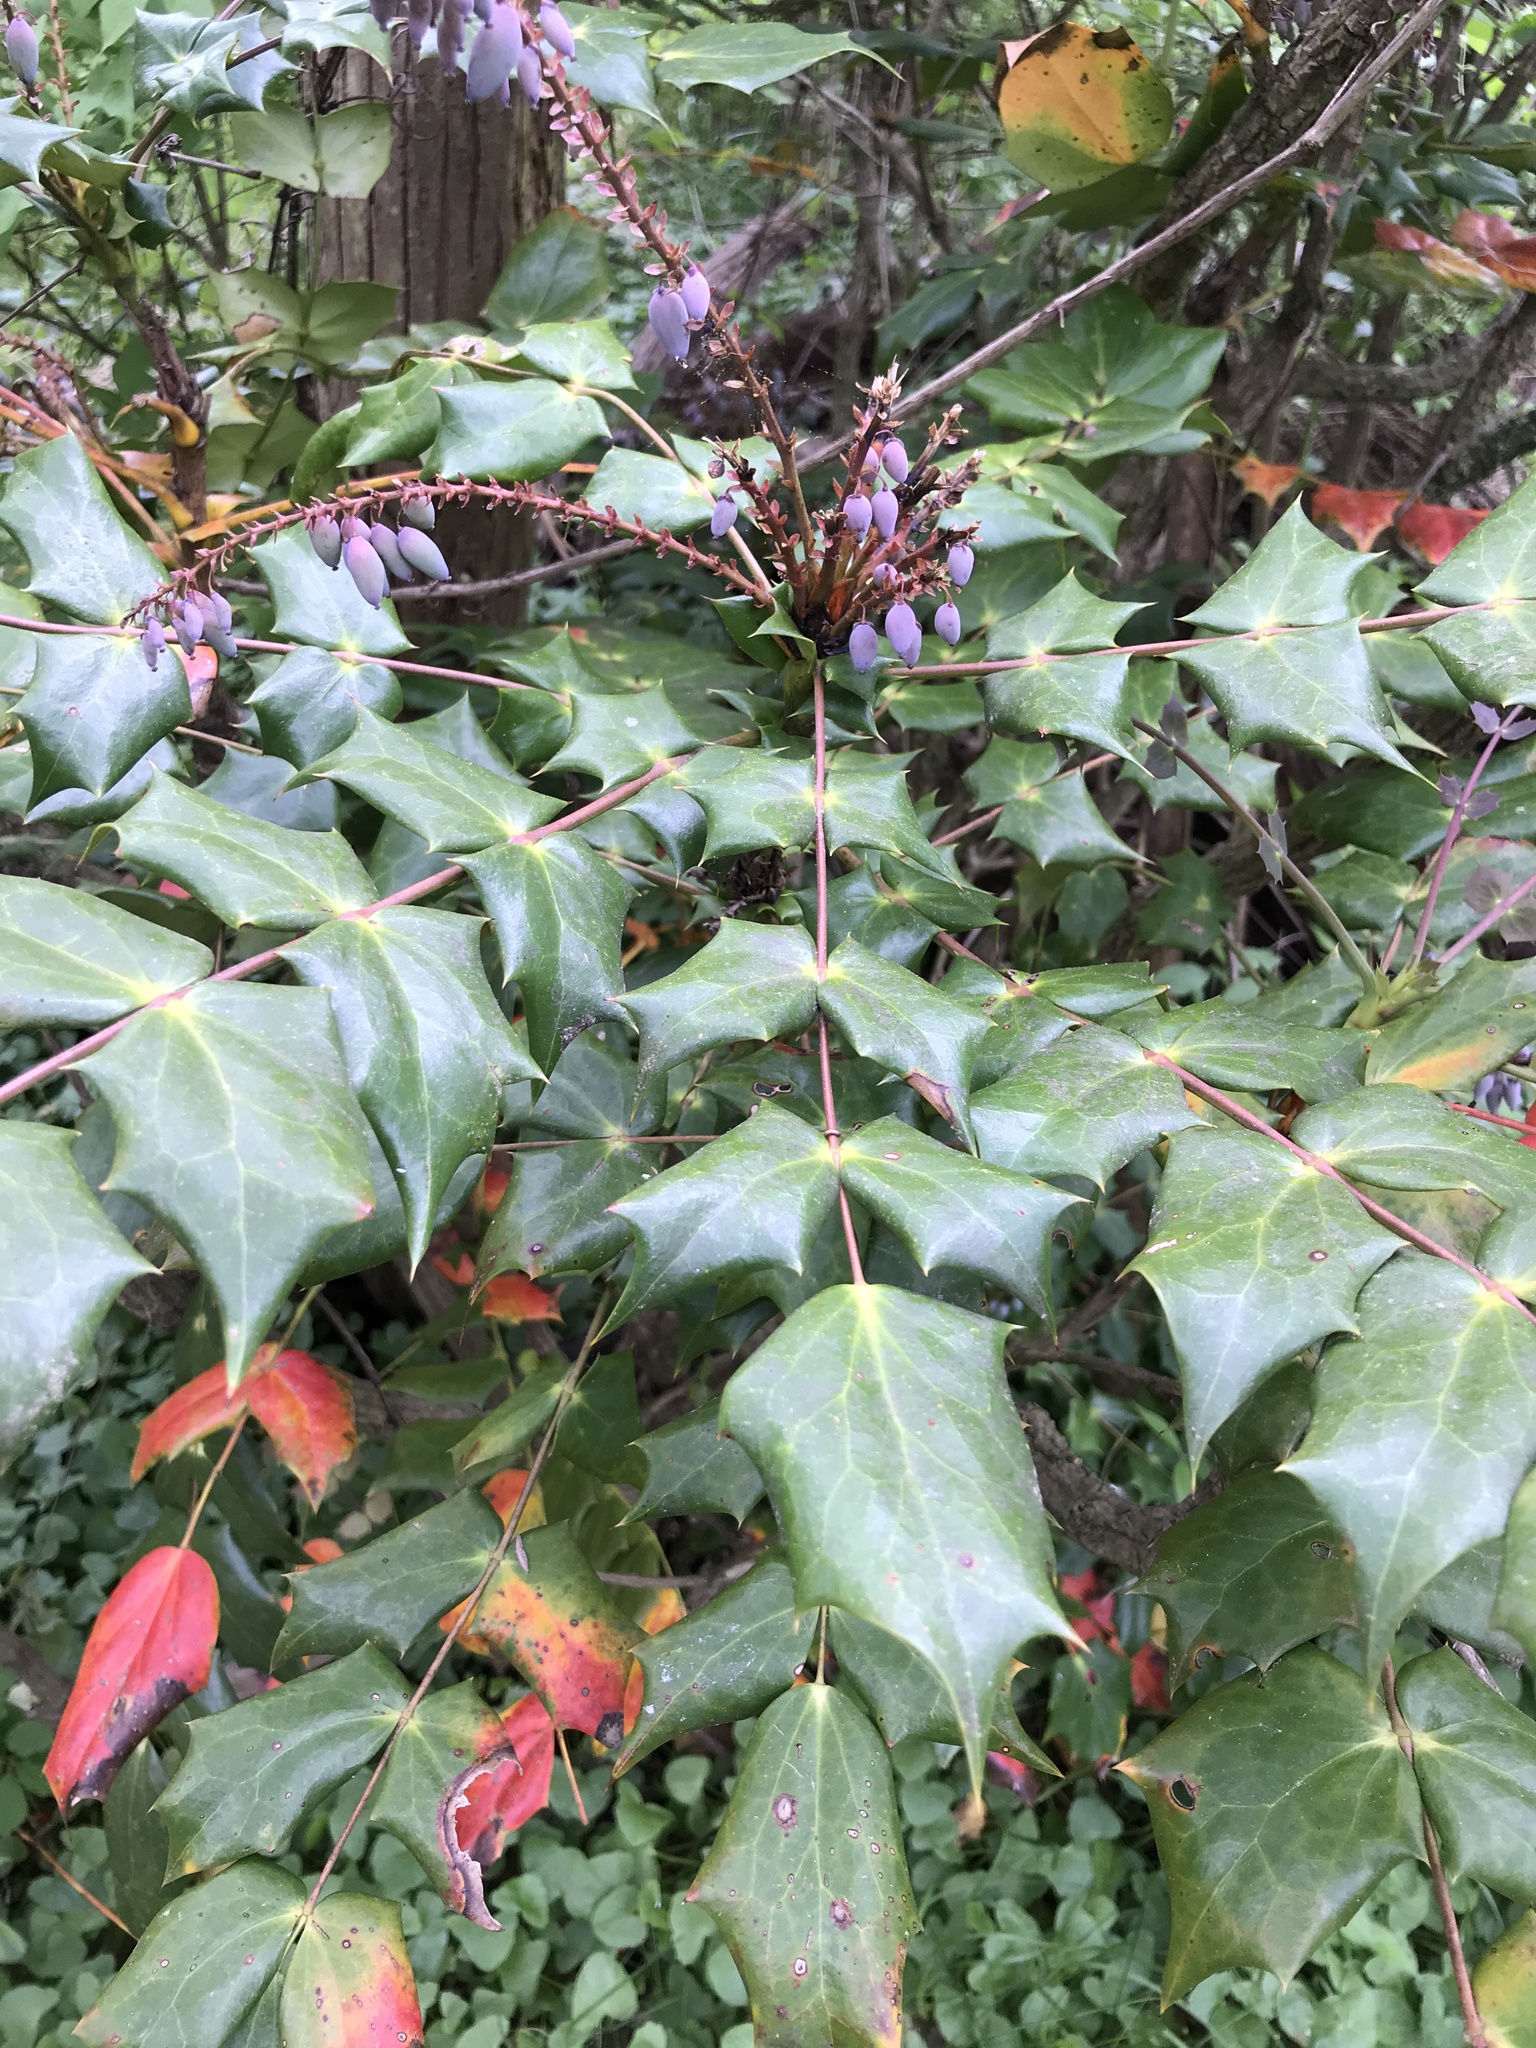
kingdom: Plantae
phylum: Tracheophyta
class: Magnoliopsida
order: Ranunculales
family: Berberidaceae
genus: Mahonia
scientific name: Mahonia bealei
